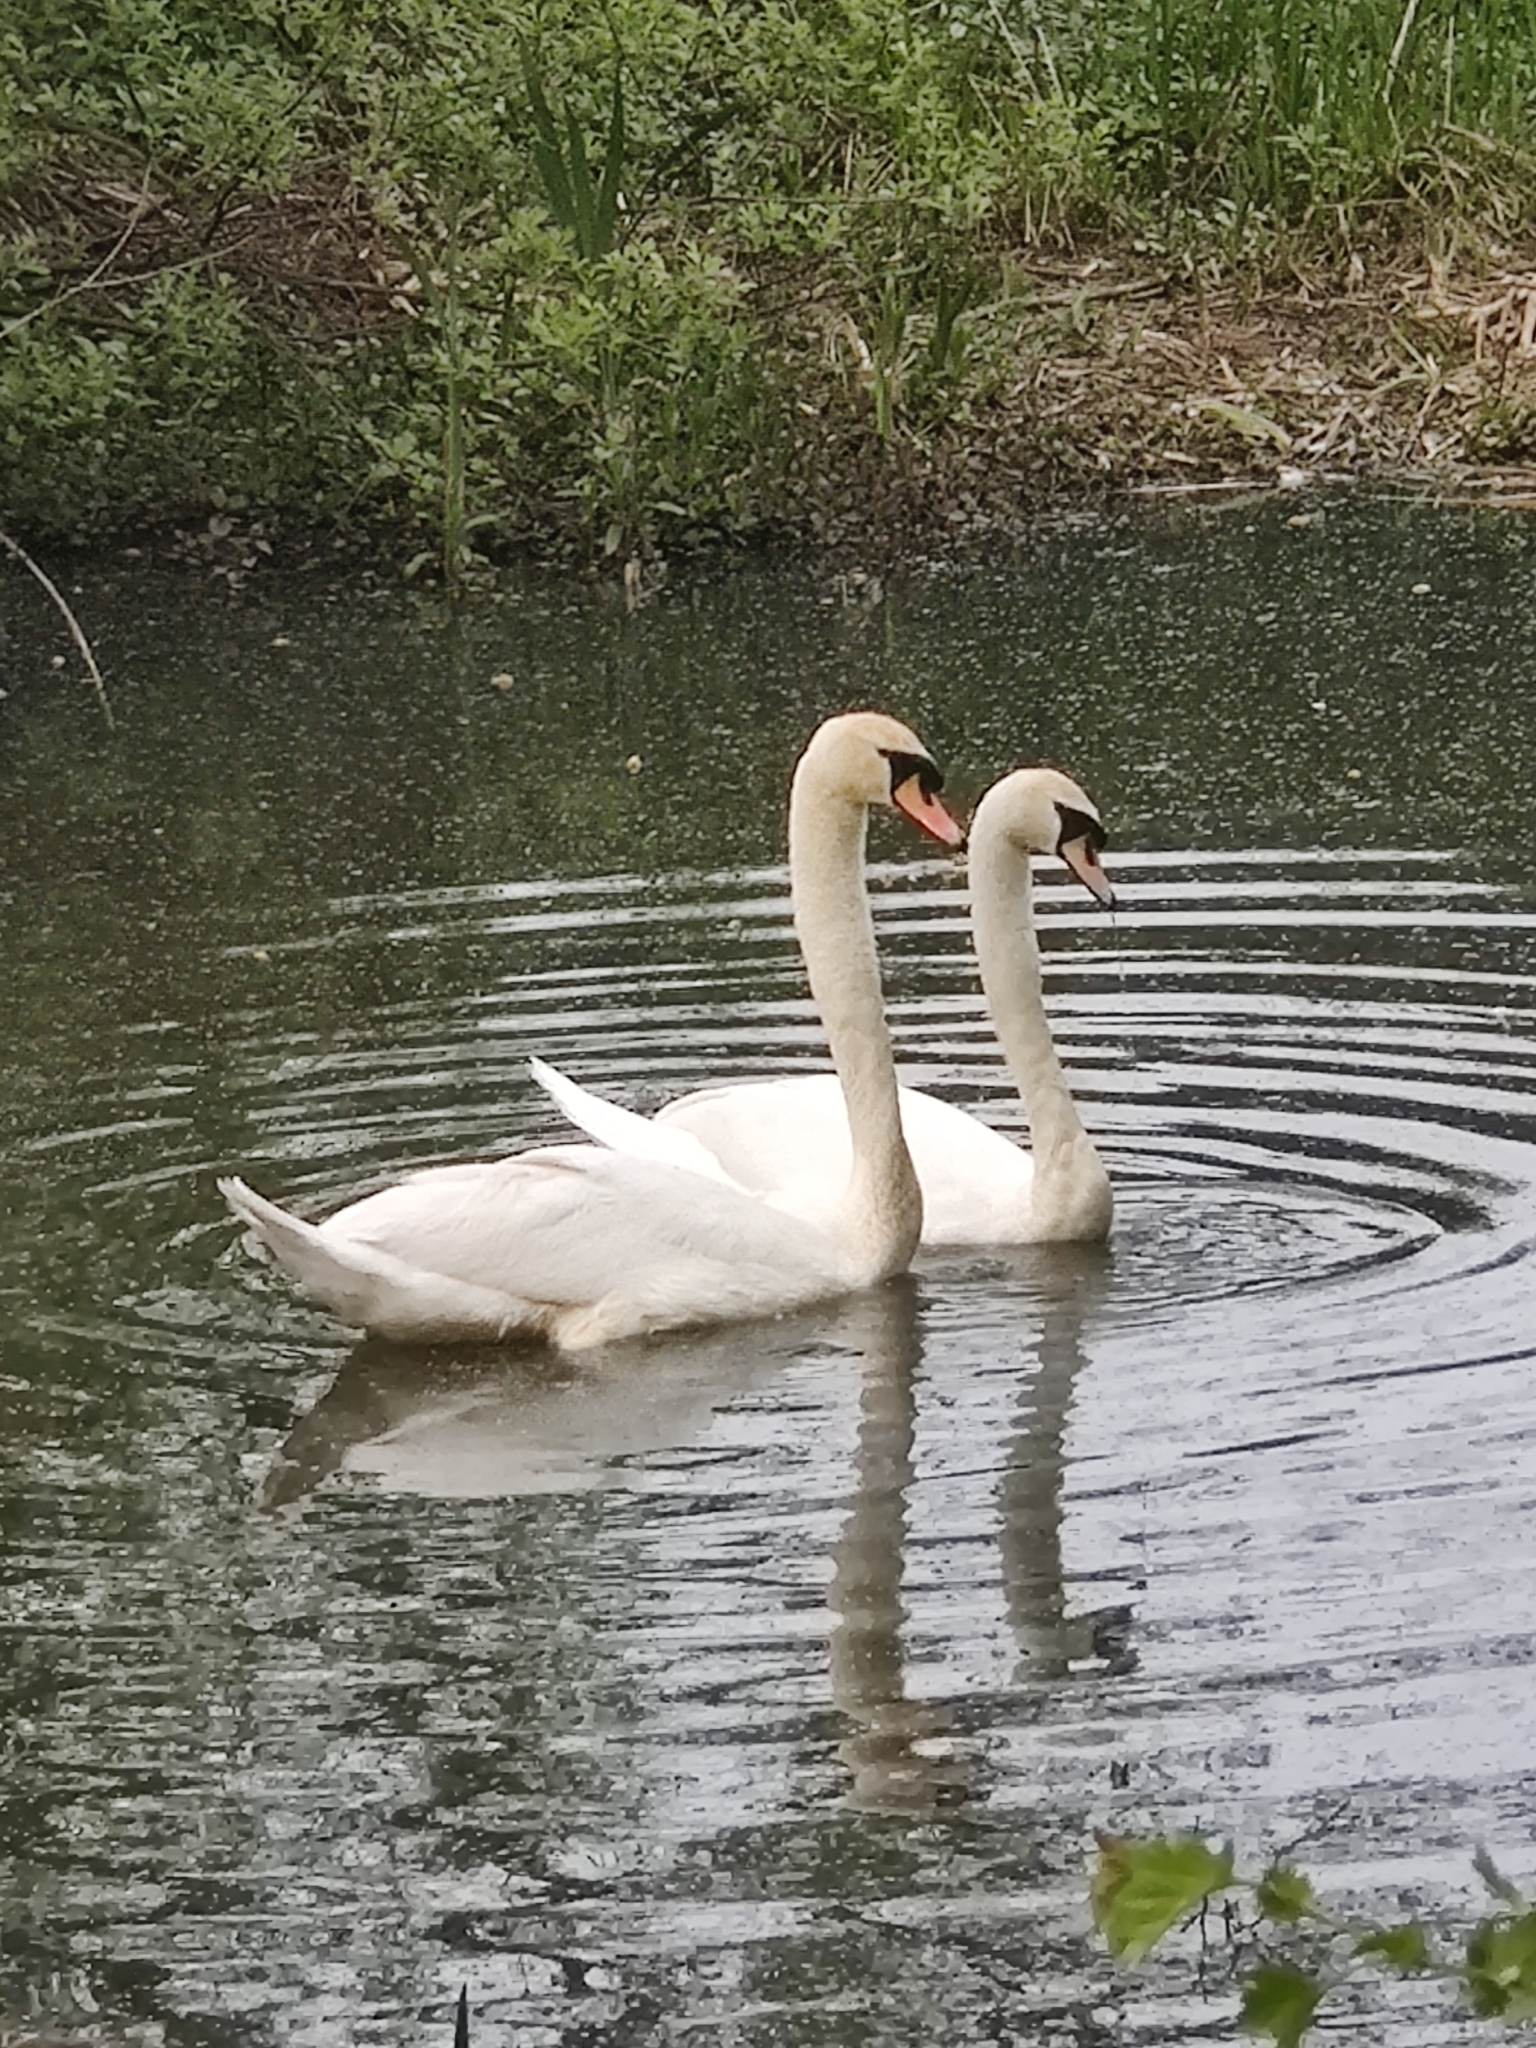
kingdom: Animalia
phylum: Chordata
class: Aves
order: Anseriformes
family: Anatidae
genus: Cygnus
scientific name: Cygnus olor
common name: Mute swan
